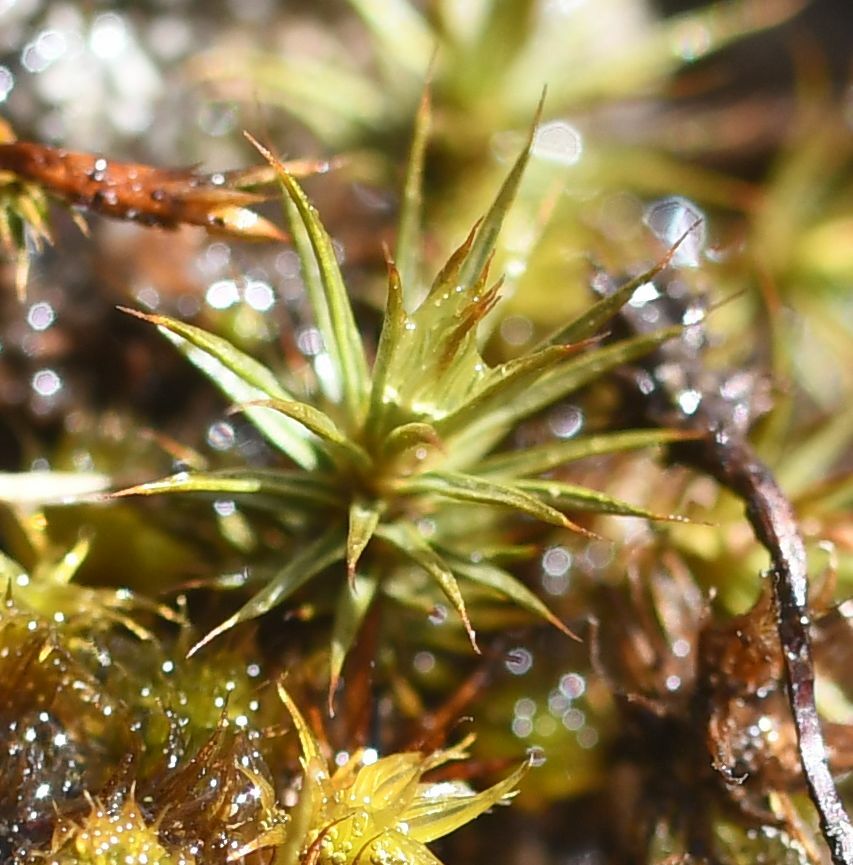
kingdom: Plantae
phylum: Bryophyta
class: Polytrichopsida
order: Polytrichales
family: Polytrichaceae
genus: Polytrichum
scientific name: Polytrichum juniperinum
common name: Juniper haircap moss
